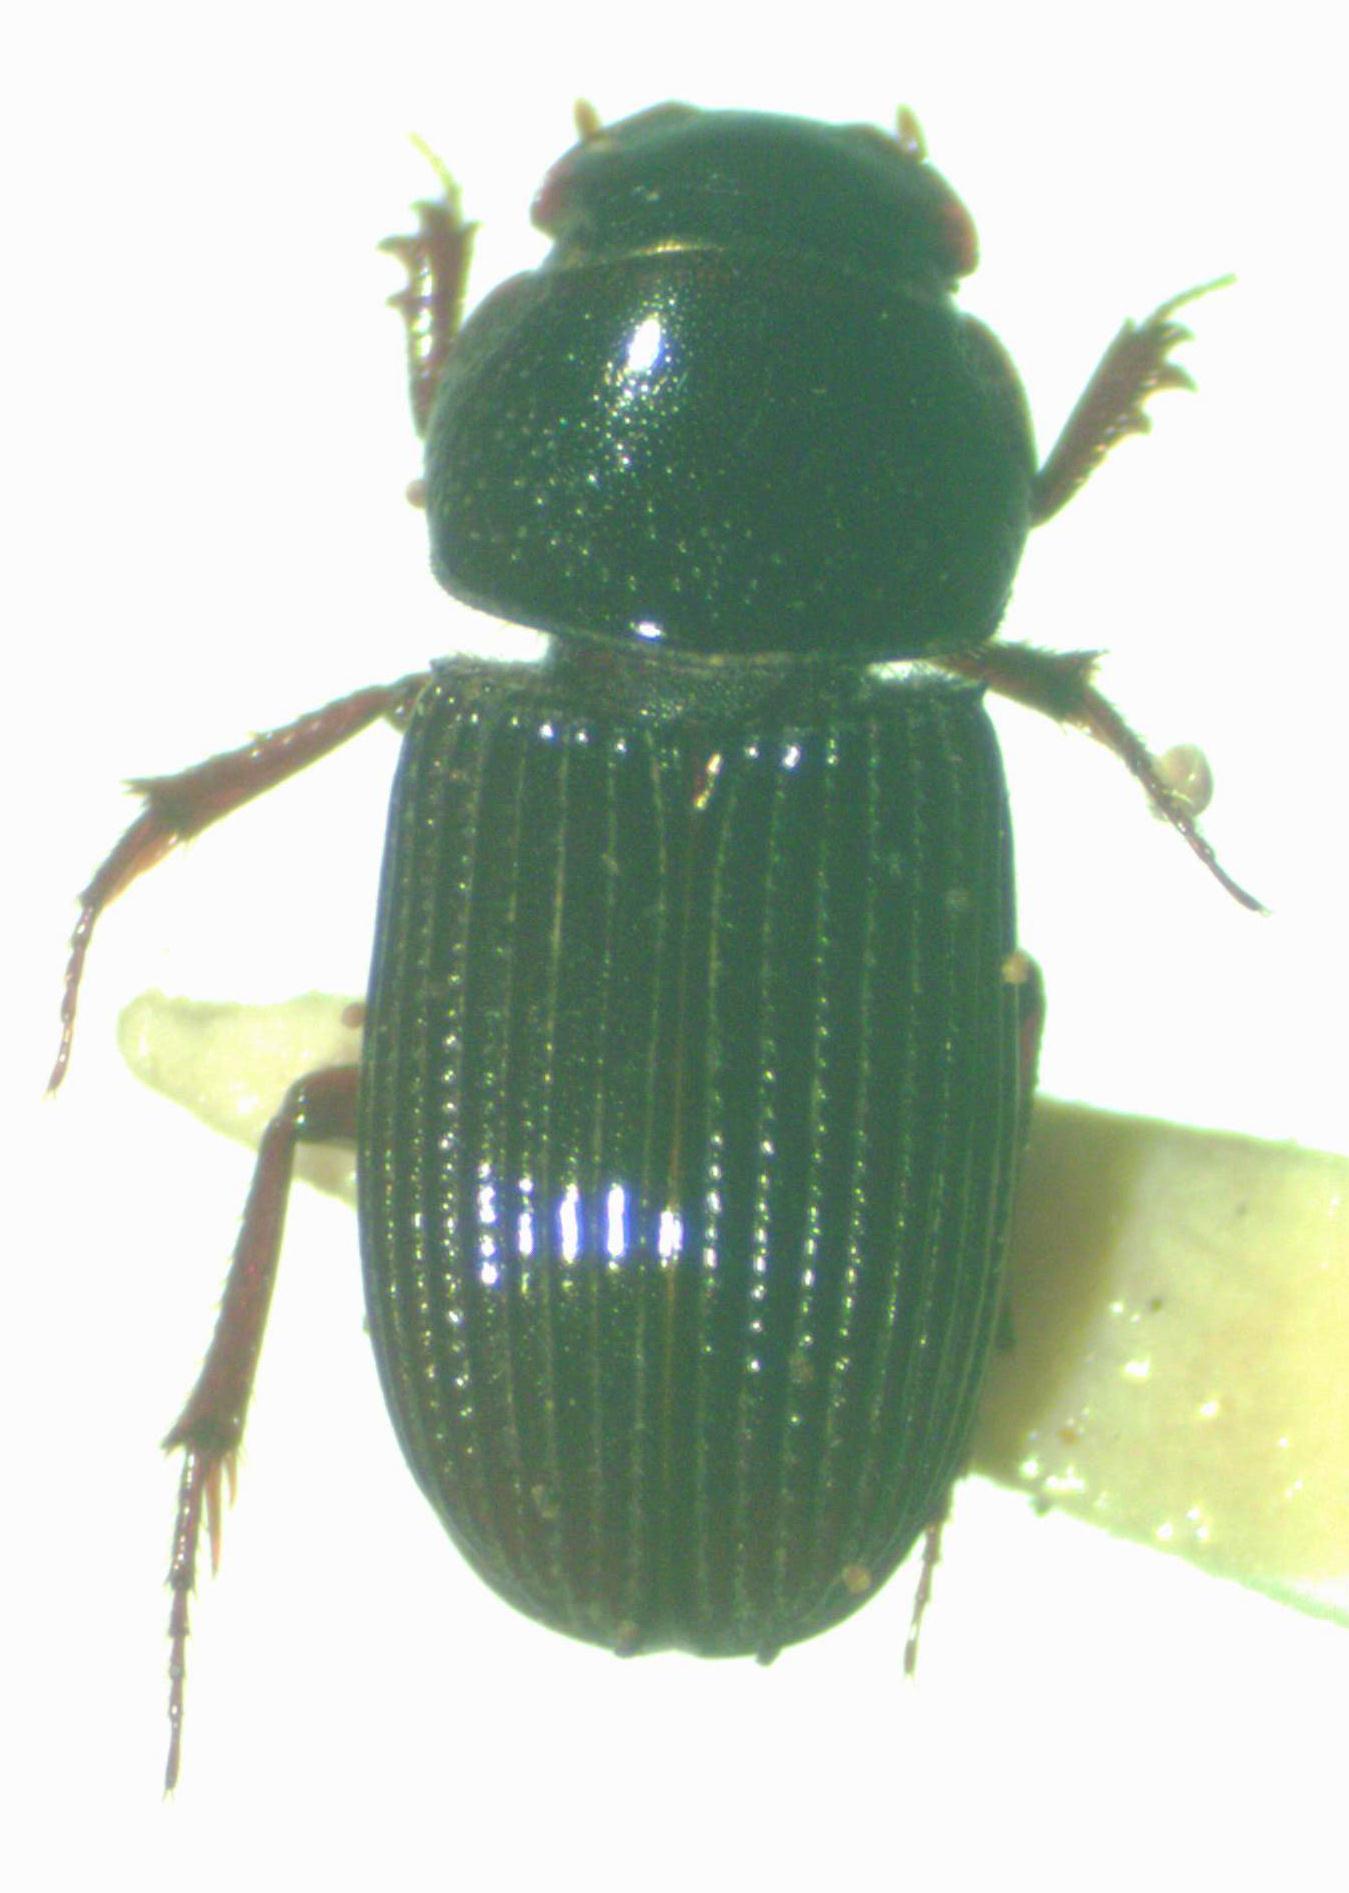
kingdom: Animalia
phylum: Arthropoda
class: Insecta
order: Coleoptera
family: Scarabaeidae
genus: Ataenius
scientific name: Ataenius nugator
